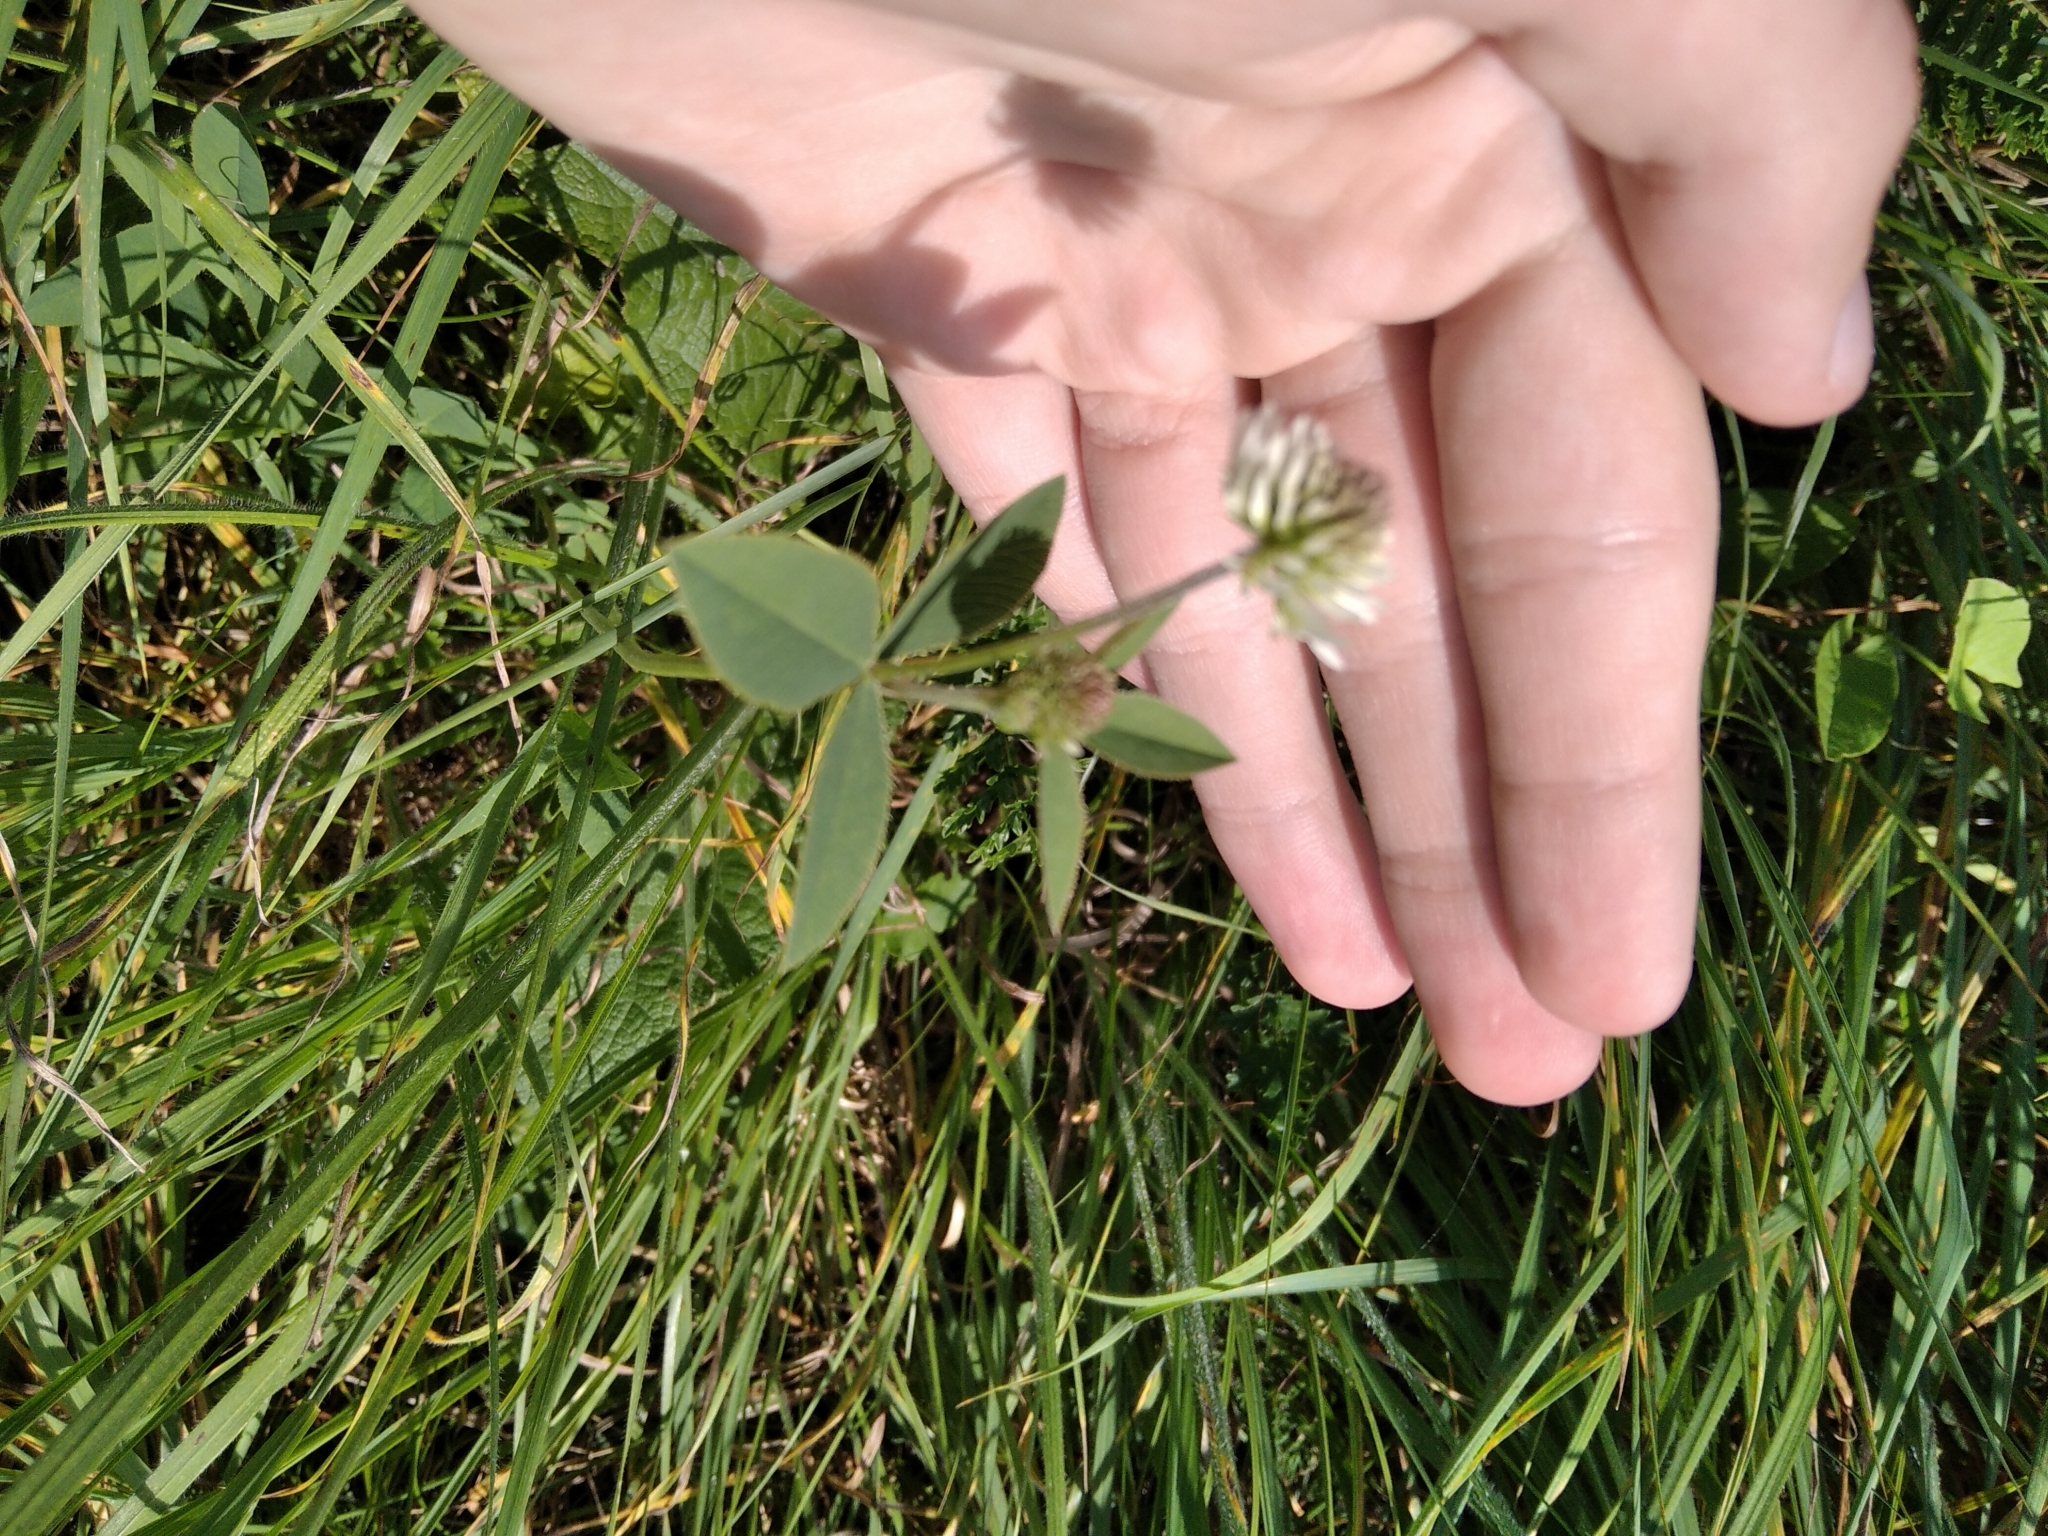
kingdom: Plantae
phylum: Tracheophyta
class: Magnoliopsida
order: Fabales
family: Fabaceae
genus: Trifolium
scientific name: Trifolium montanum
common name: Mountain clover
